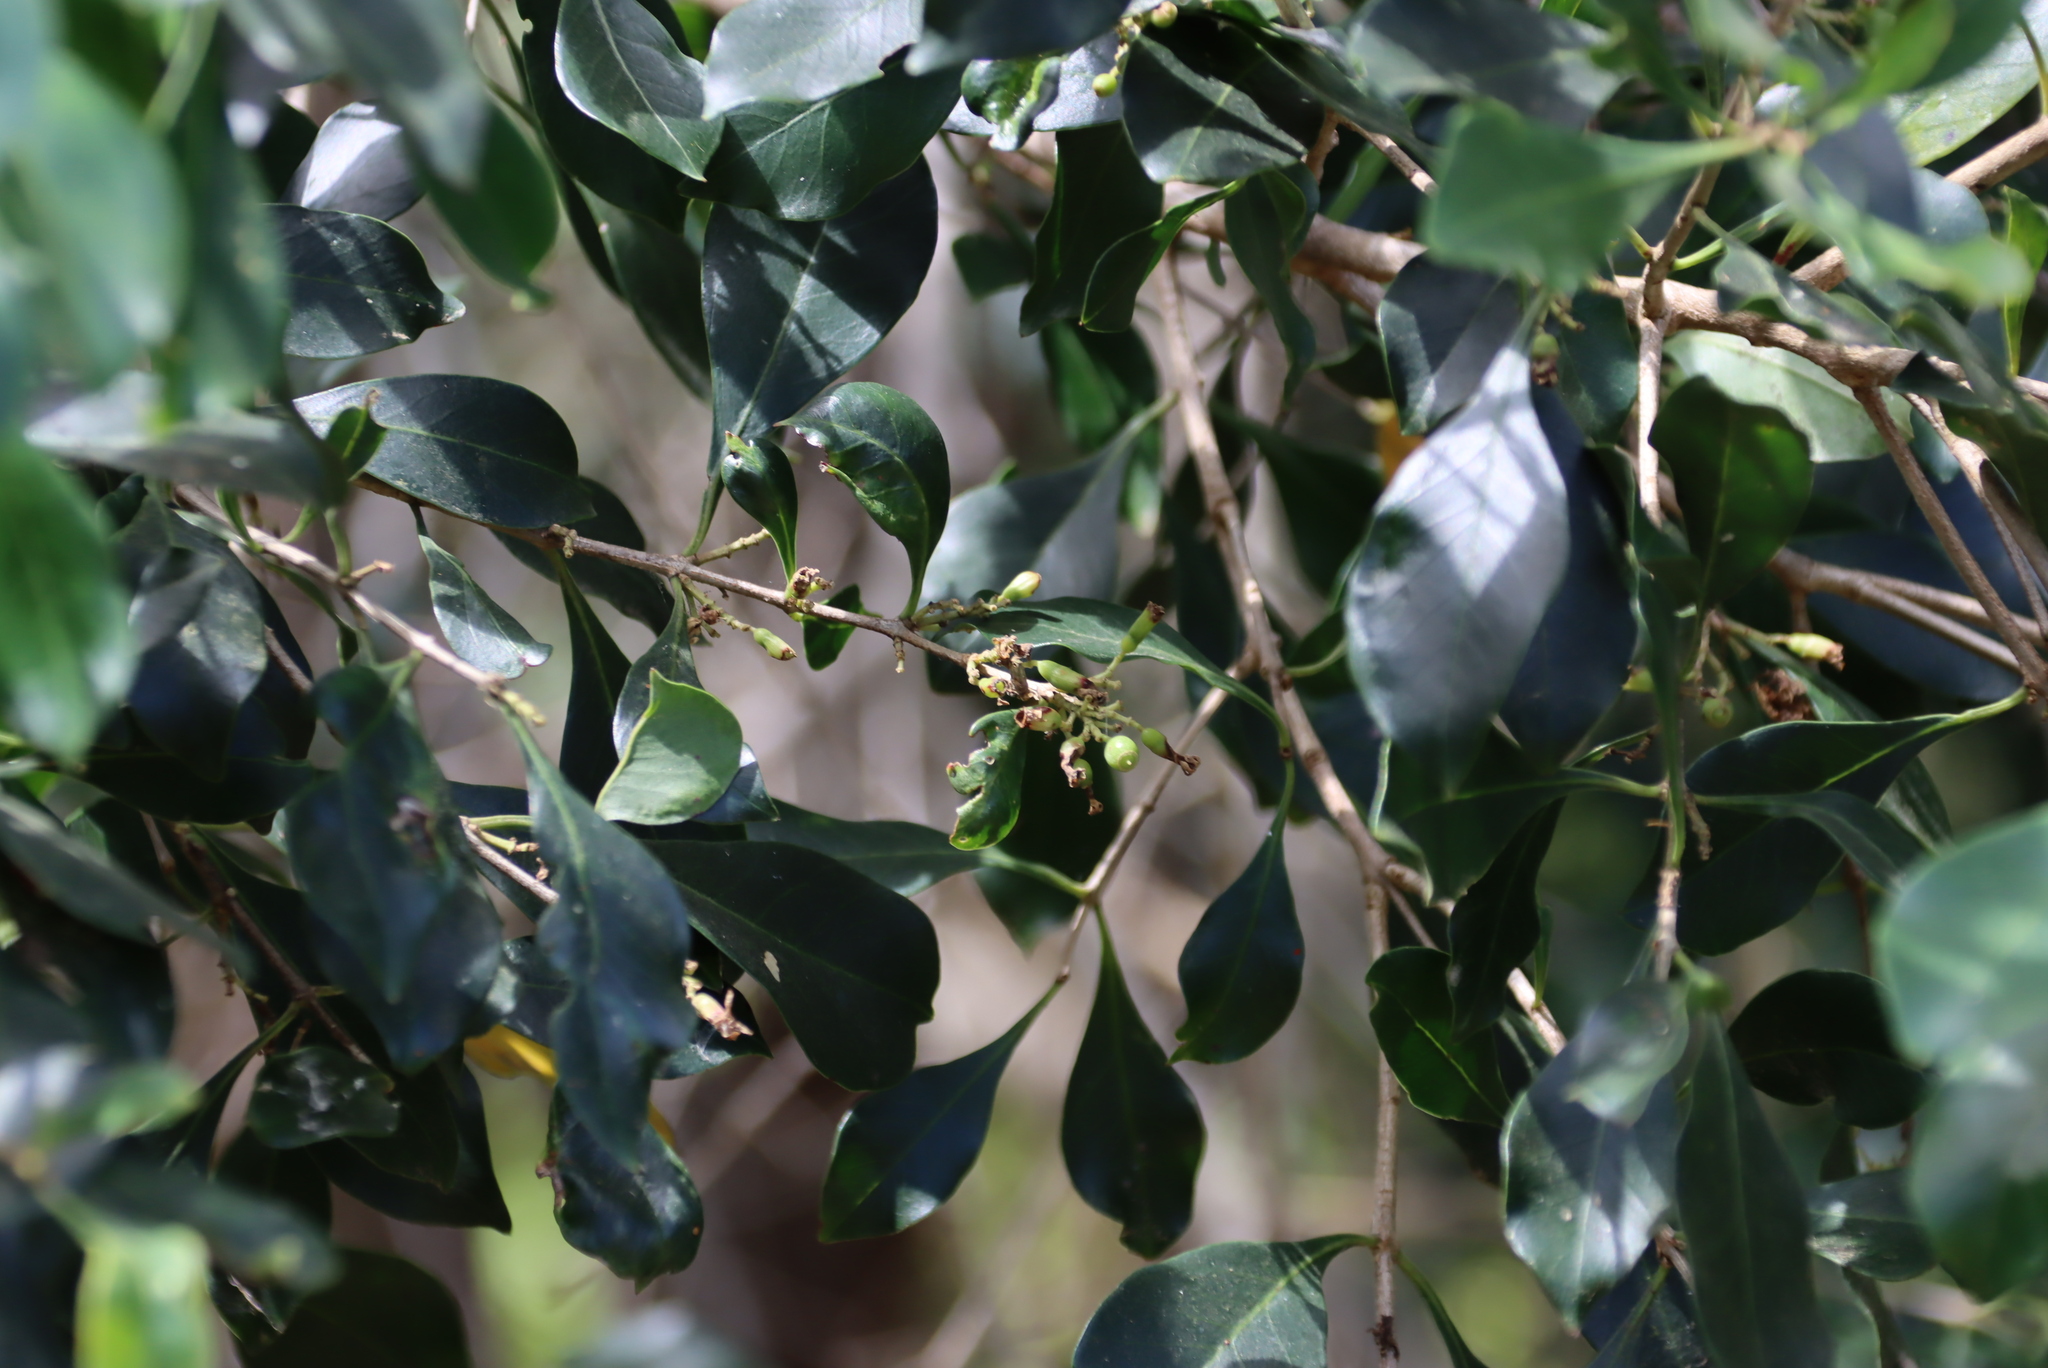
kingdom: Plantae
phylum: Tracheophyta
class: Magnoliopsida
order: Myrtales
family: Penaeaceae
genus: Olinia
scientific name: Olinia ventosa
